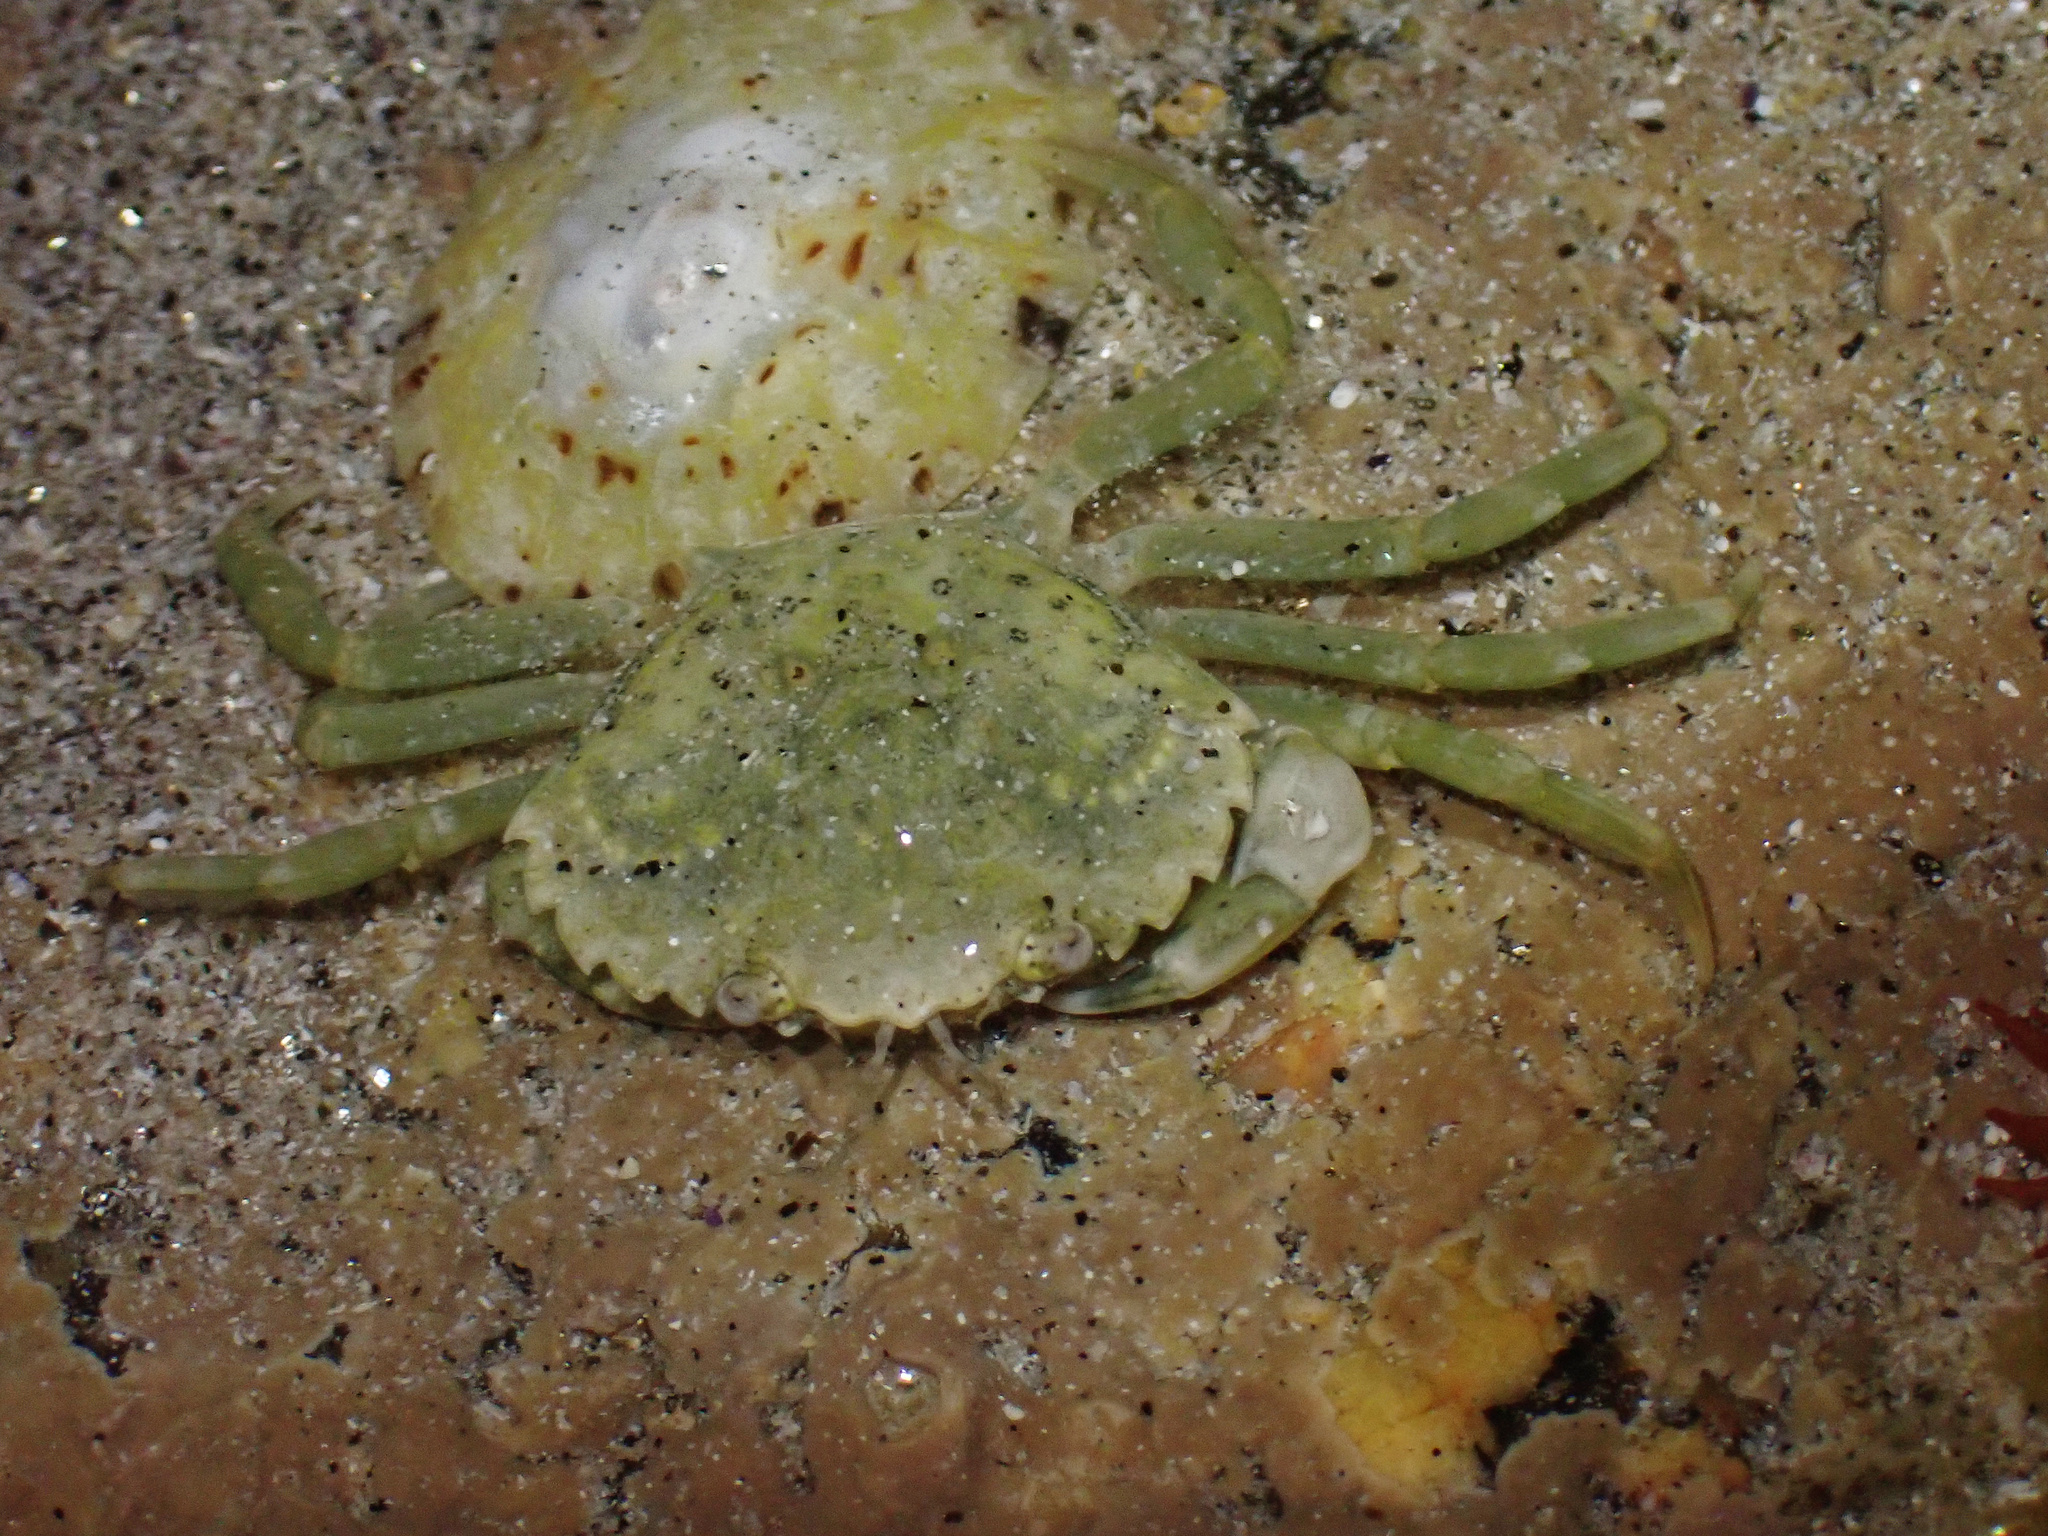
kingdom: Animalia
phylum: Arthropoda
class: Malacostraca
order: Decapoda
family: Carcinidae
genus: Carcinus
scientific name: Carcinus maenas
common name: European green crab
